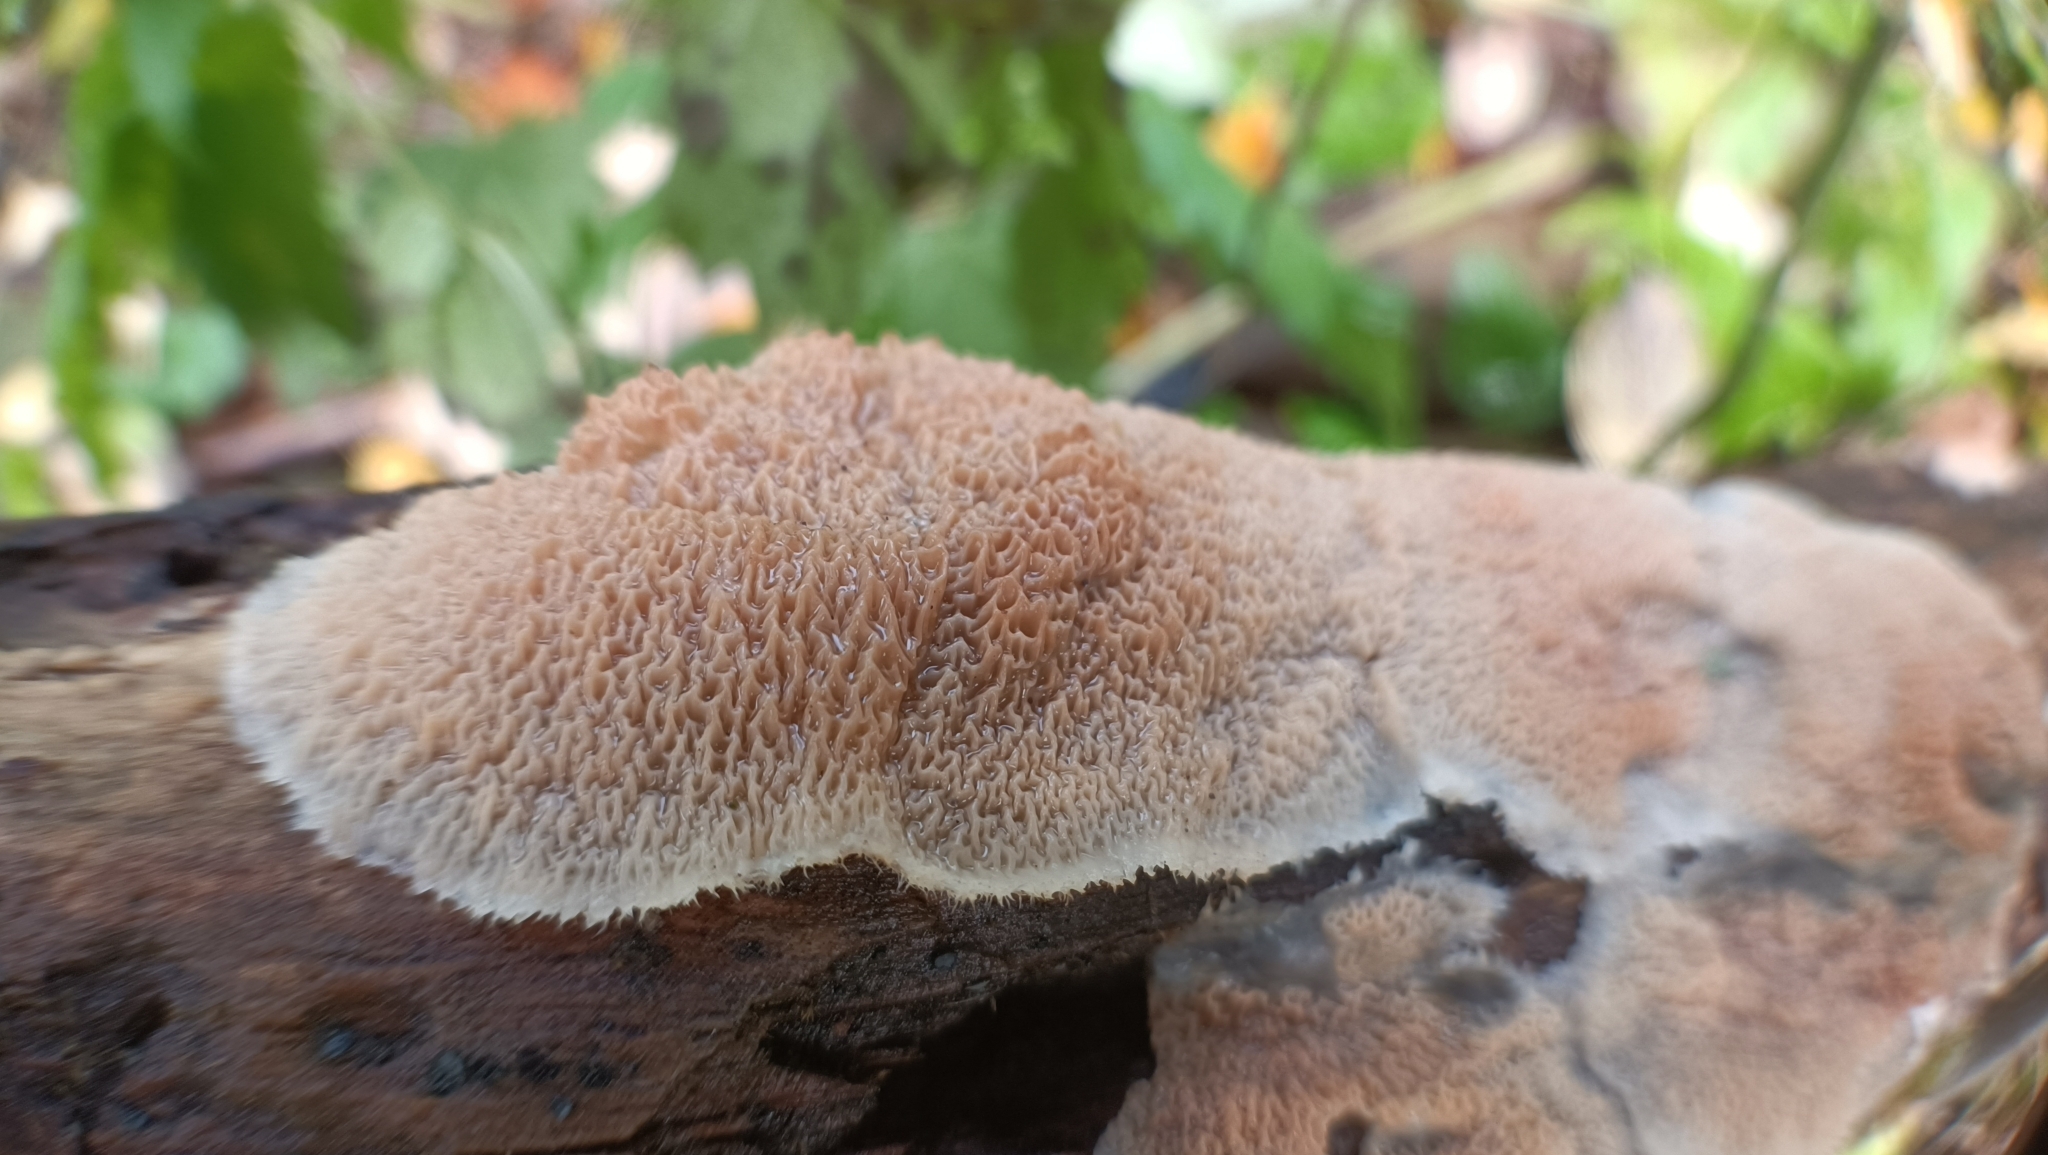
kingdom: Fungi
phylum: Basidiomycota
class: Agaricomycetes
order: Polyporales
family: Meruliaceae
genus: Phlebia
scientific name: Phlebia tremellosa
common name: Jelly rot
